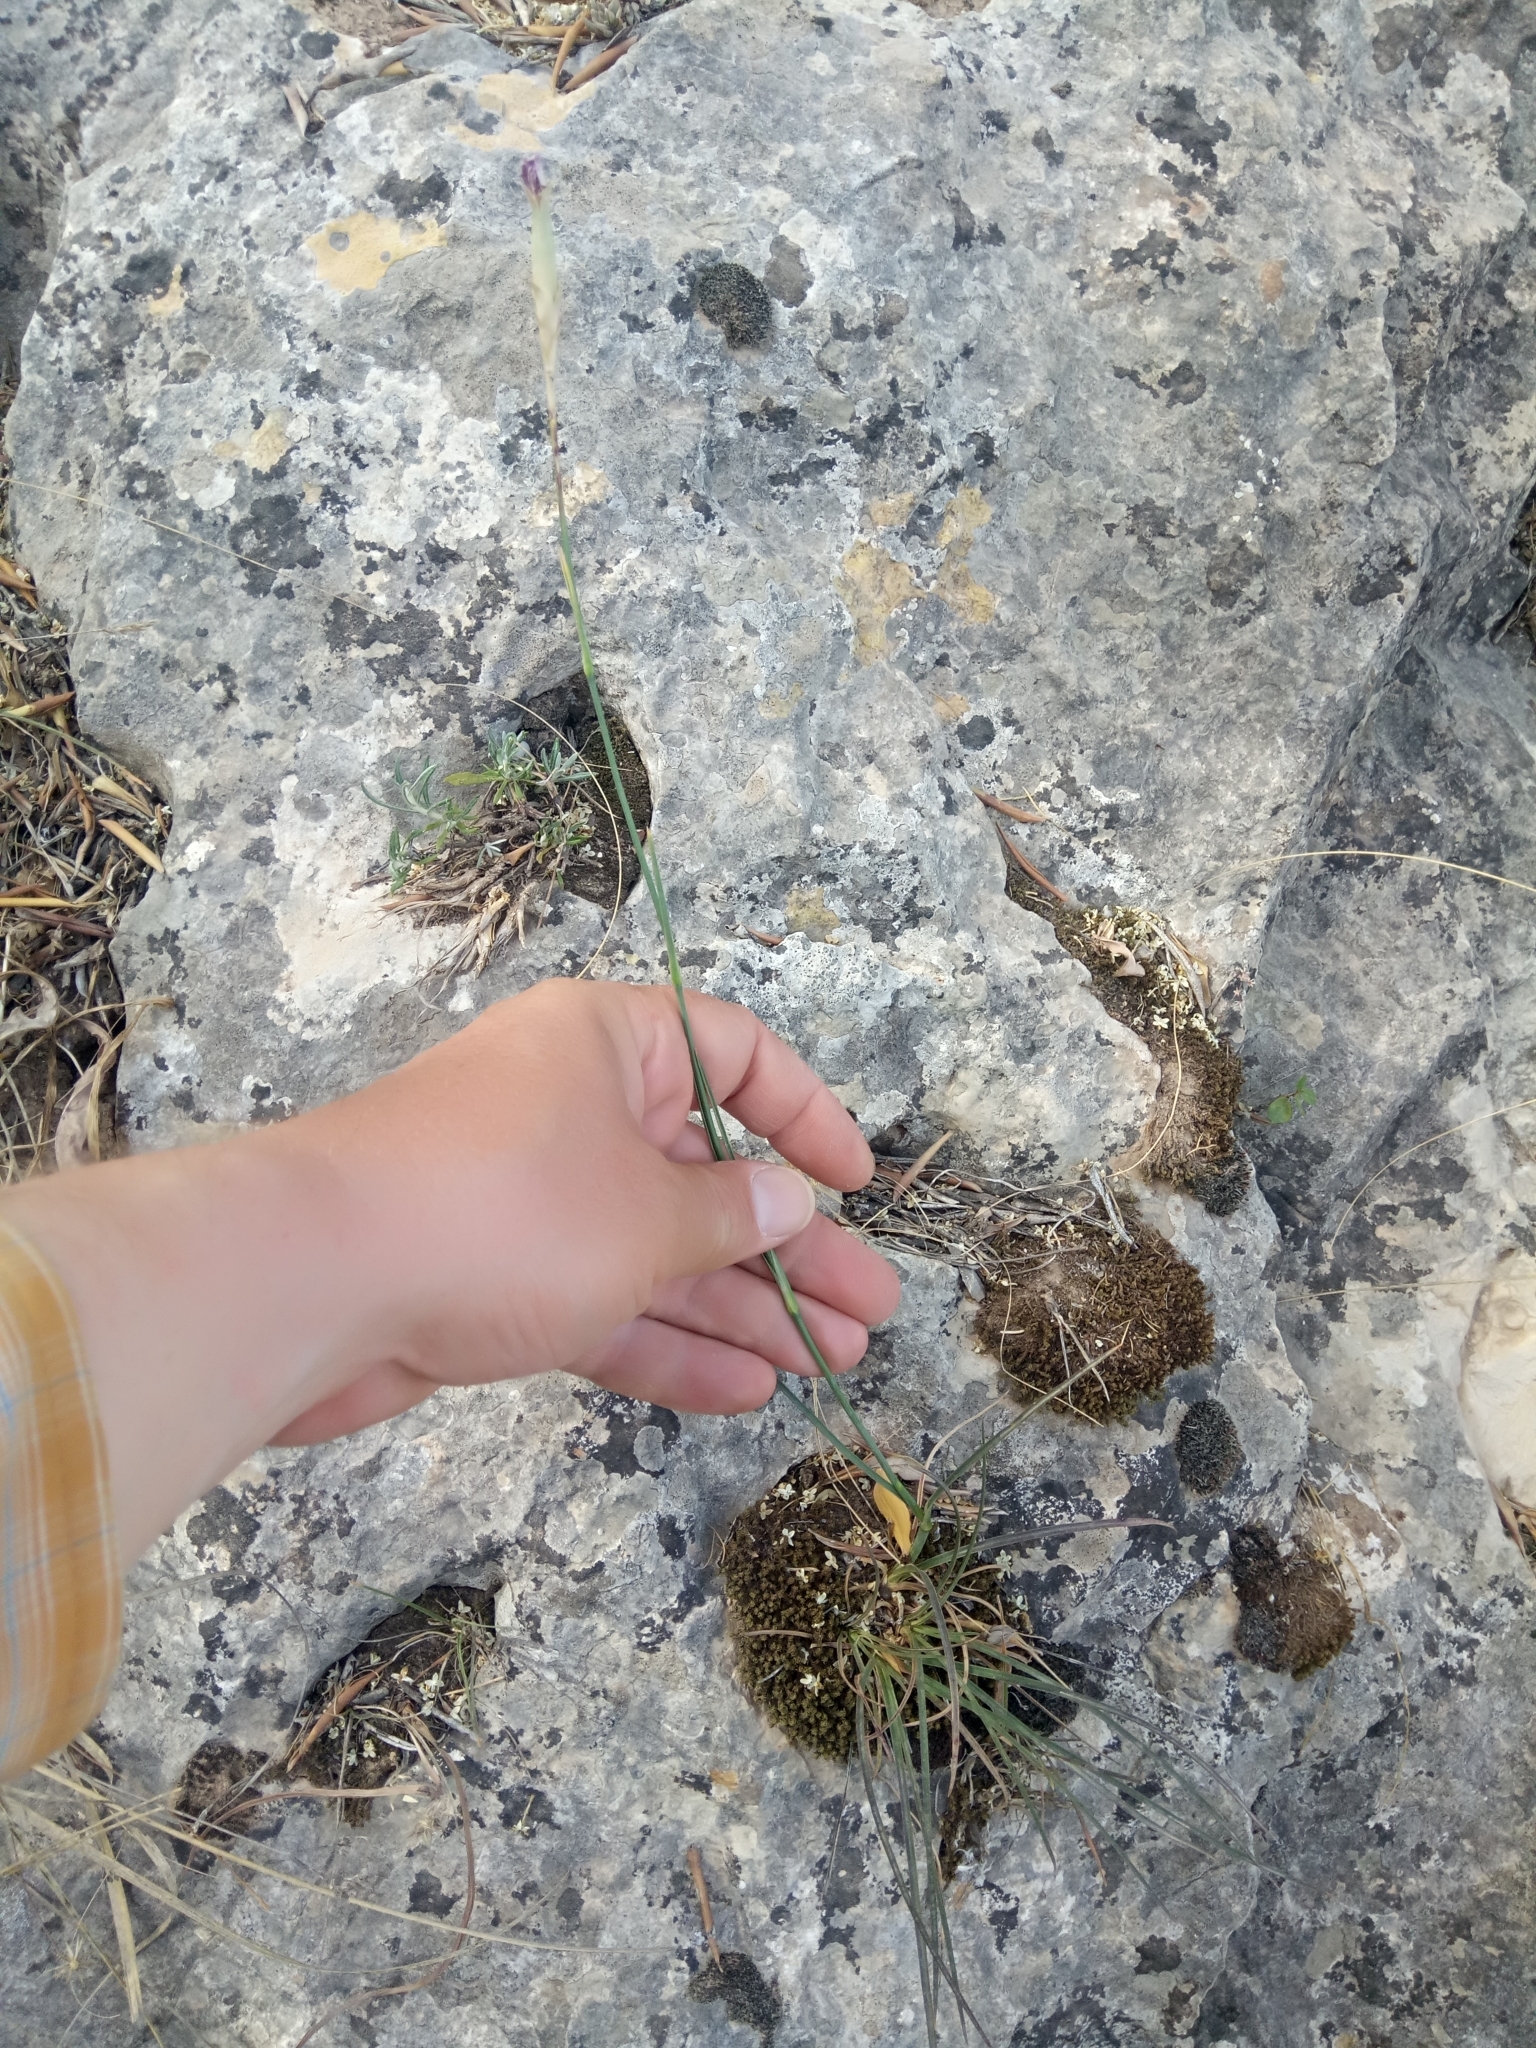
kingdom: Plantae
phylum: Tracheophyta
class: Magnoliopsida
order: Caryophyllales
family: Caryophyllaceae
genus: Dianthus
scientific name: Dianthus sylvestris
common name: Wood pink
